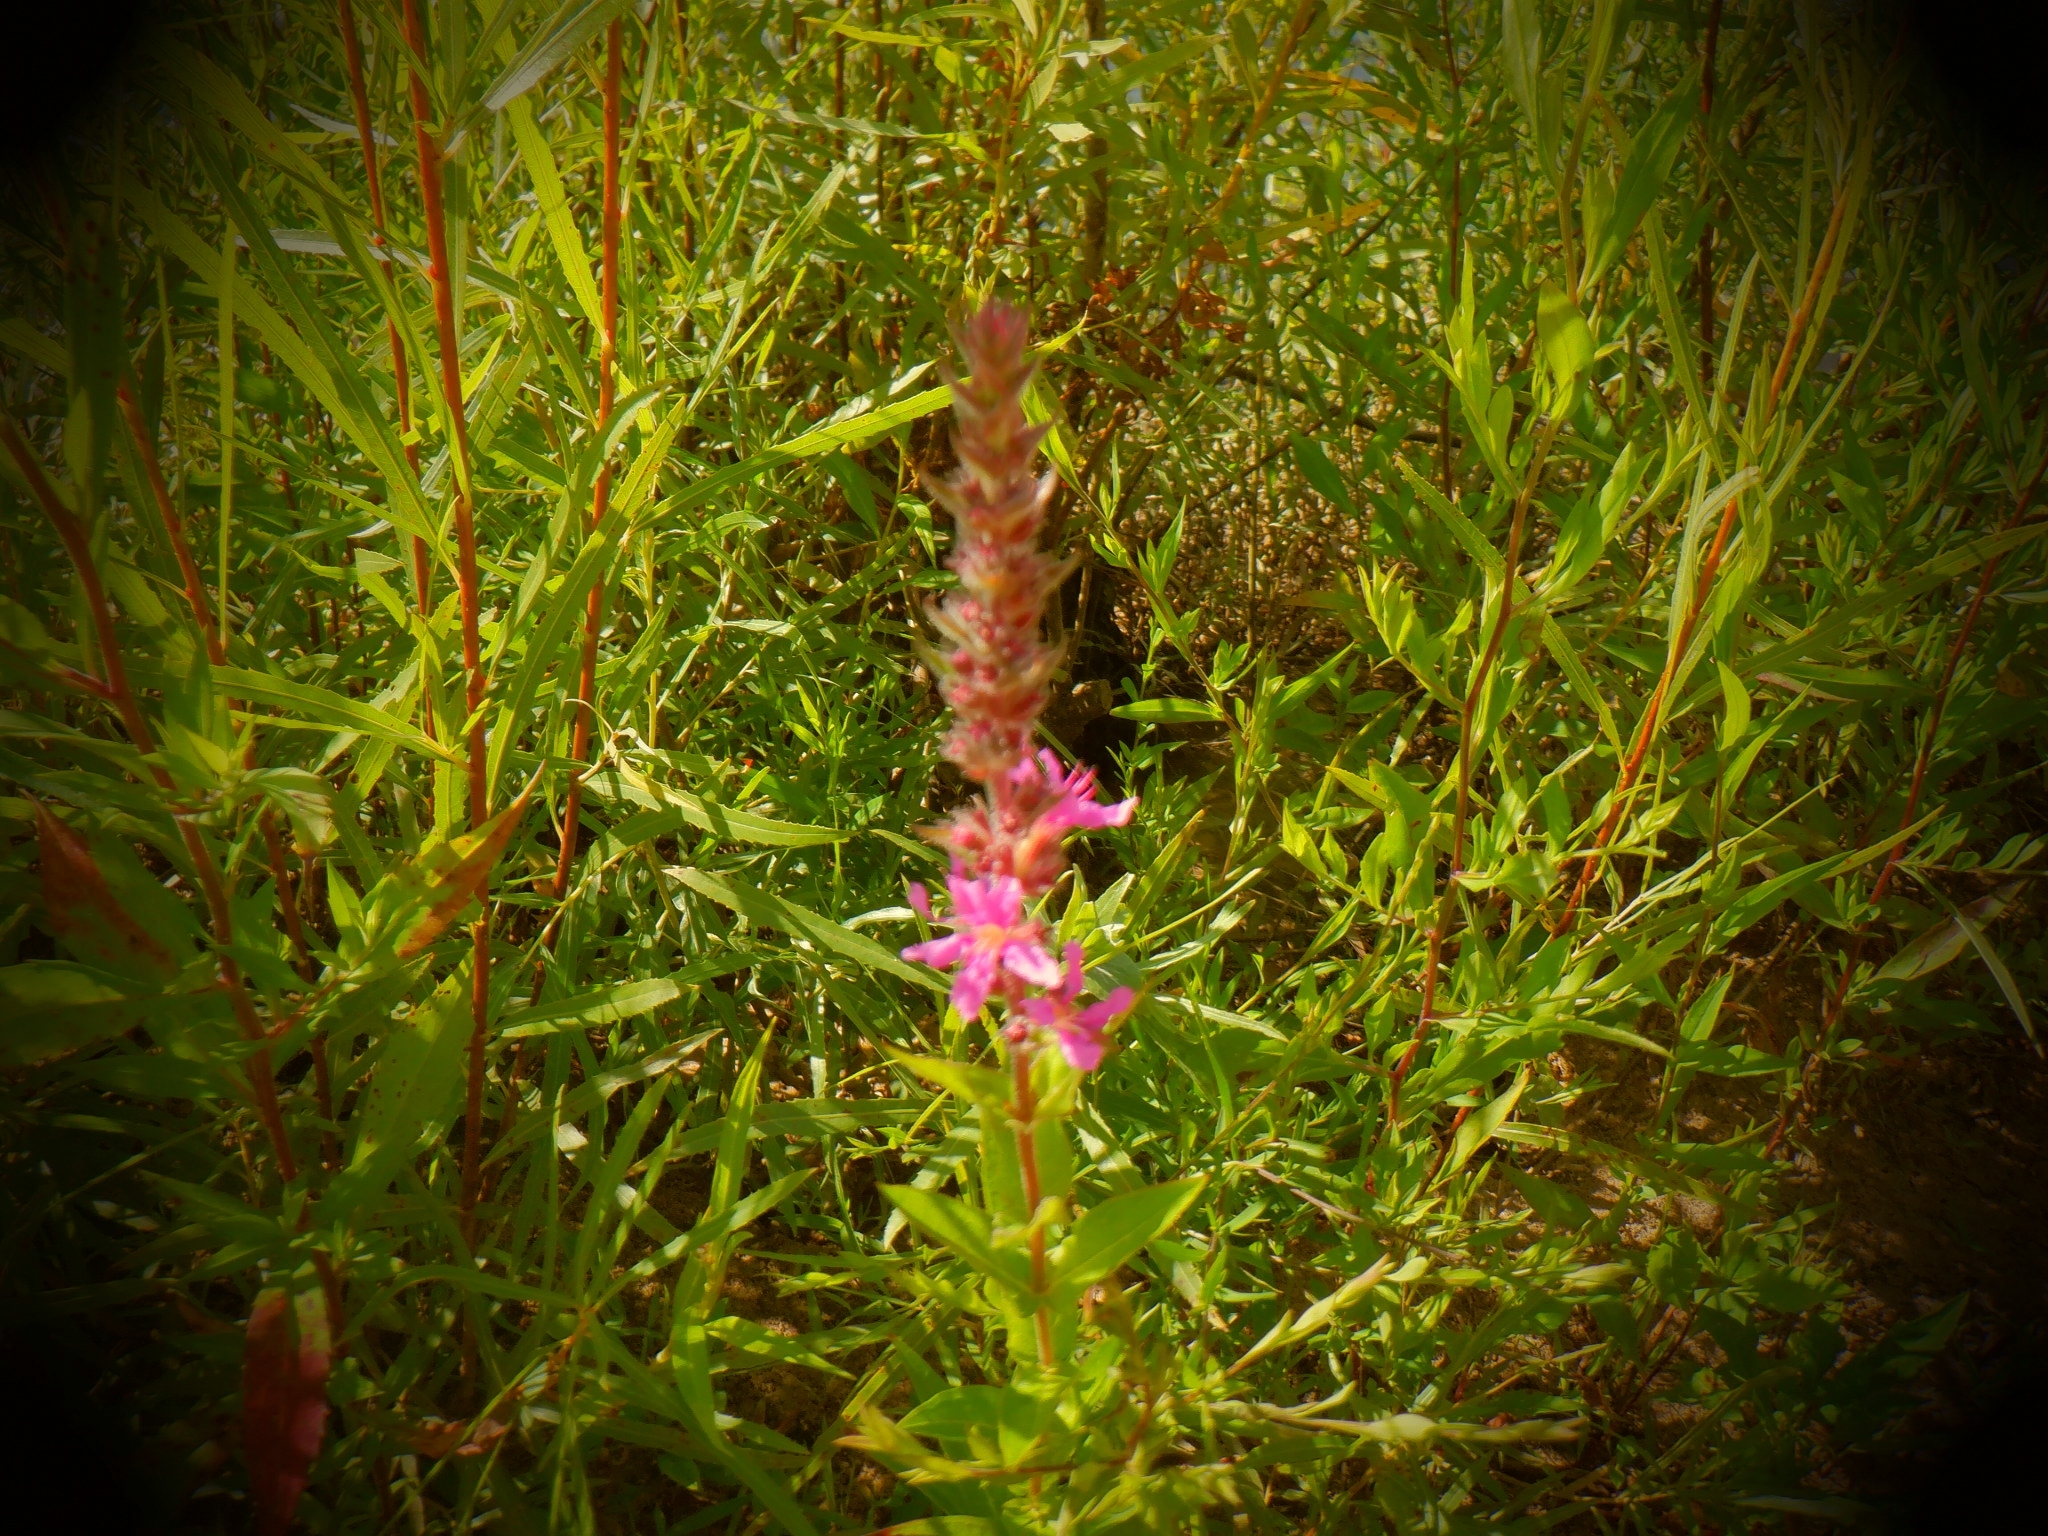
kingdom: Plantae
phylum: Tracheophyta
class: Magnoliopsida
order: Myrtales
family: Lythraceae
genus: Lythrum
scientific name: Lythrum salicaria
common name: Purple loosestrife
